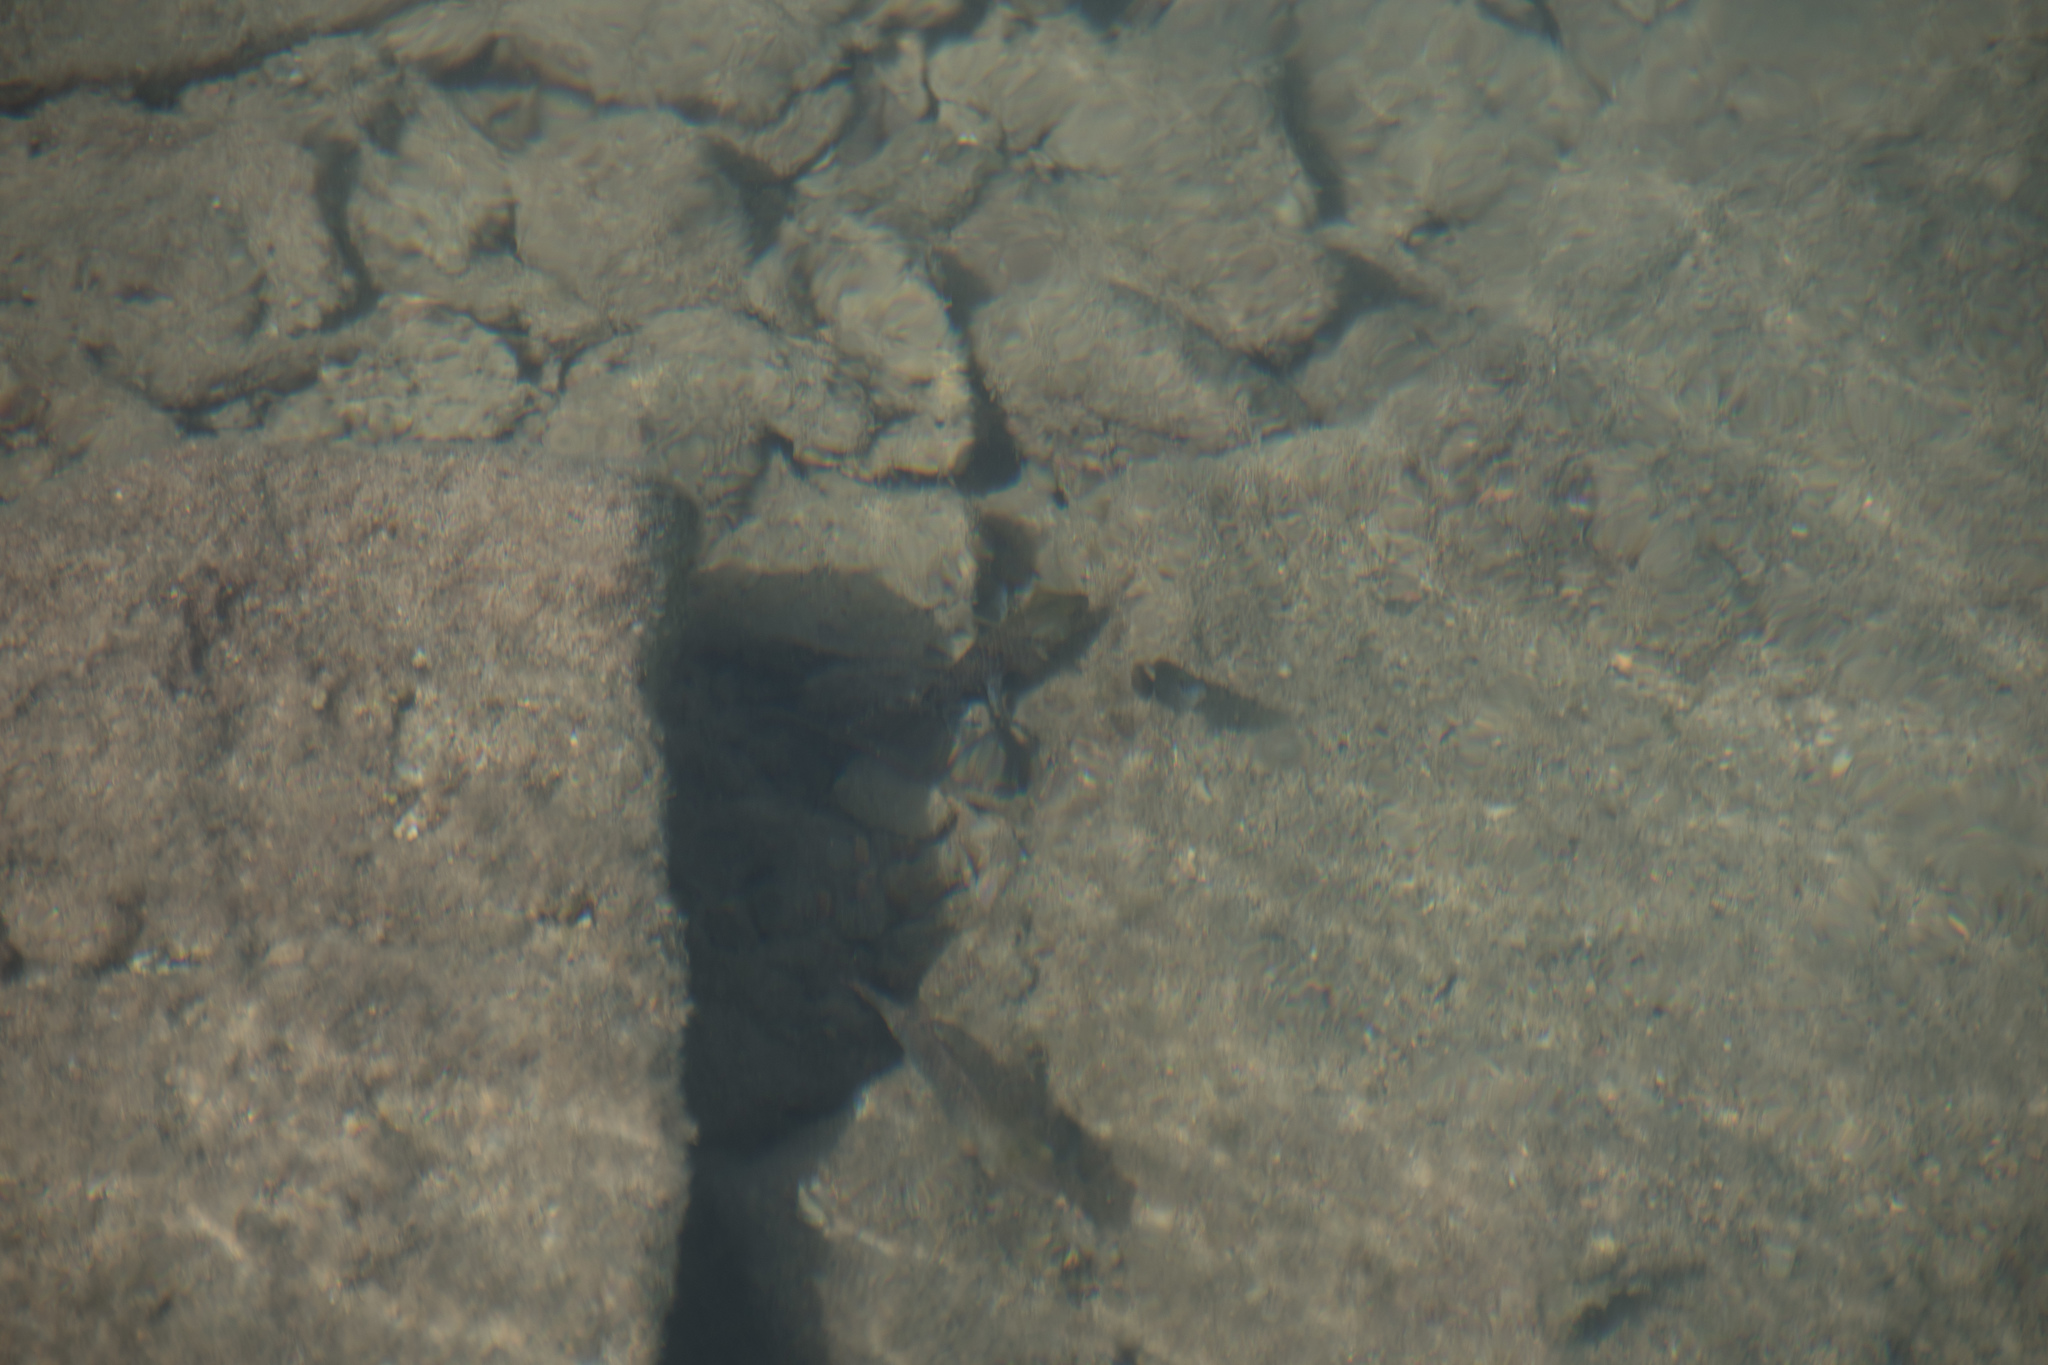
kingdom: Animalia
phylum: Chordata
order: Perciformes
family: Scaridae
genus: Sparisoma
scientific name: Sparisoma cretense
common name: Parrotfish
